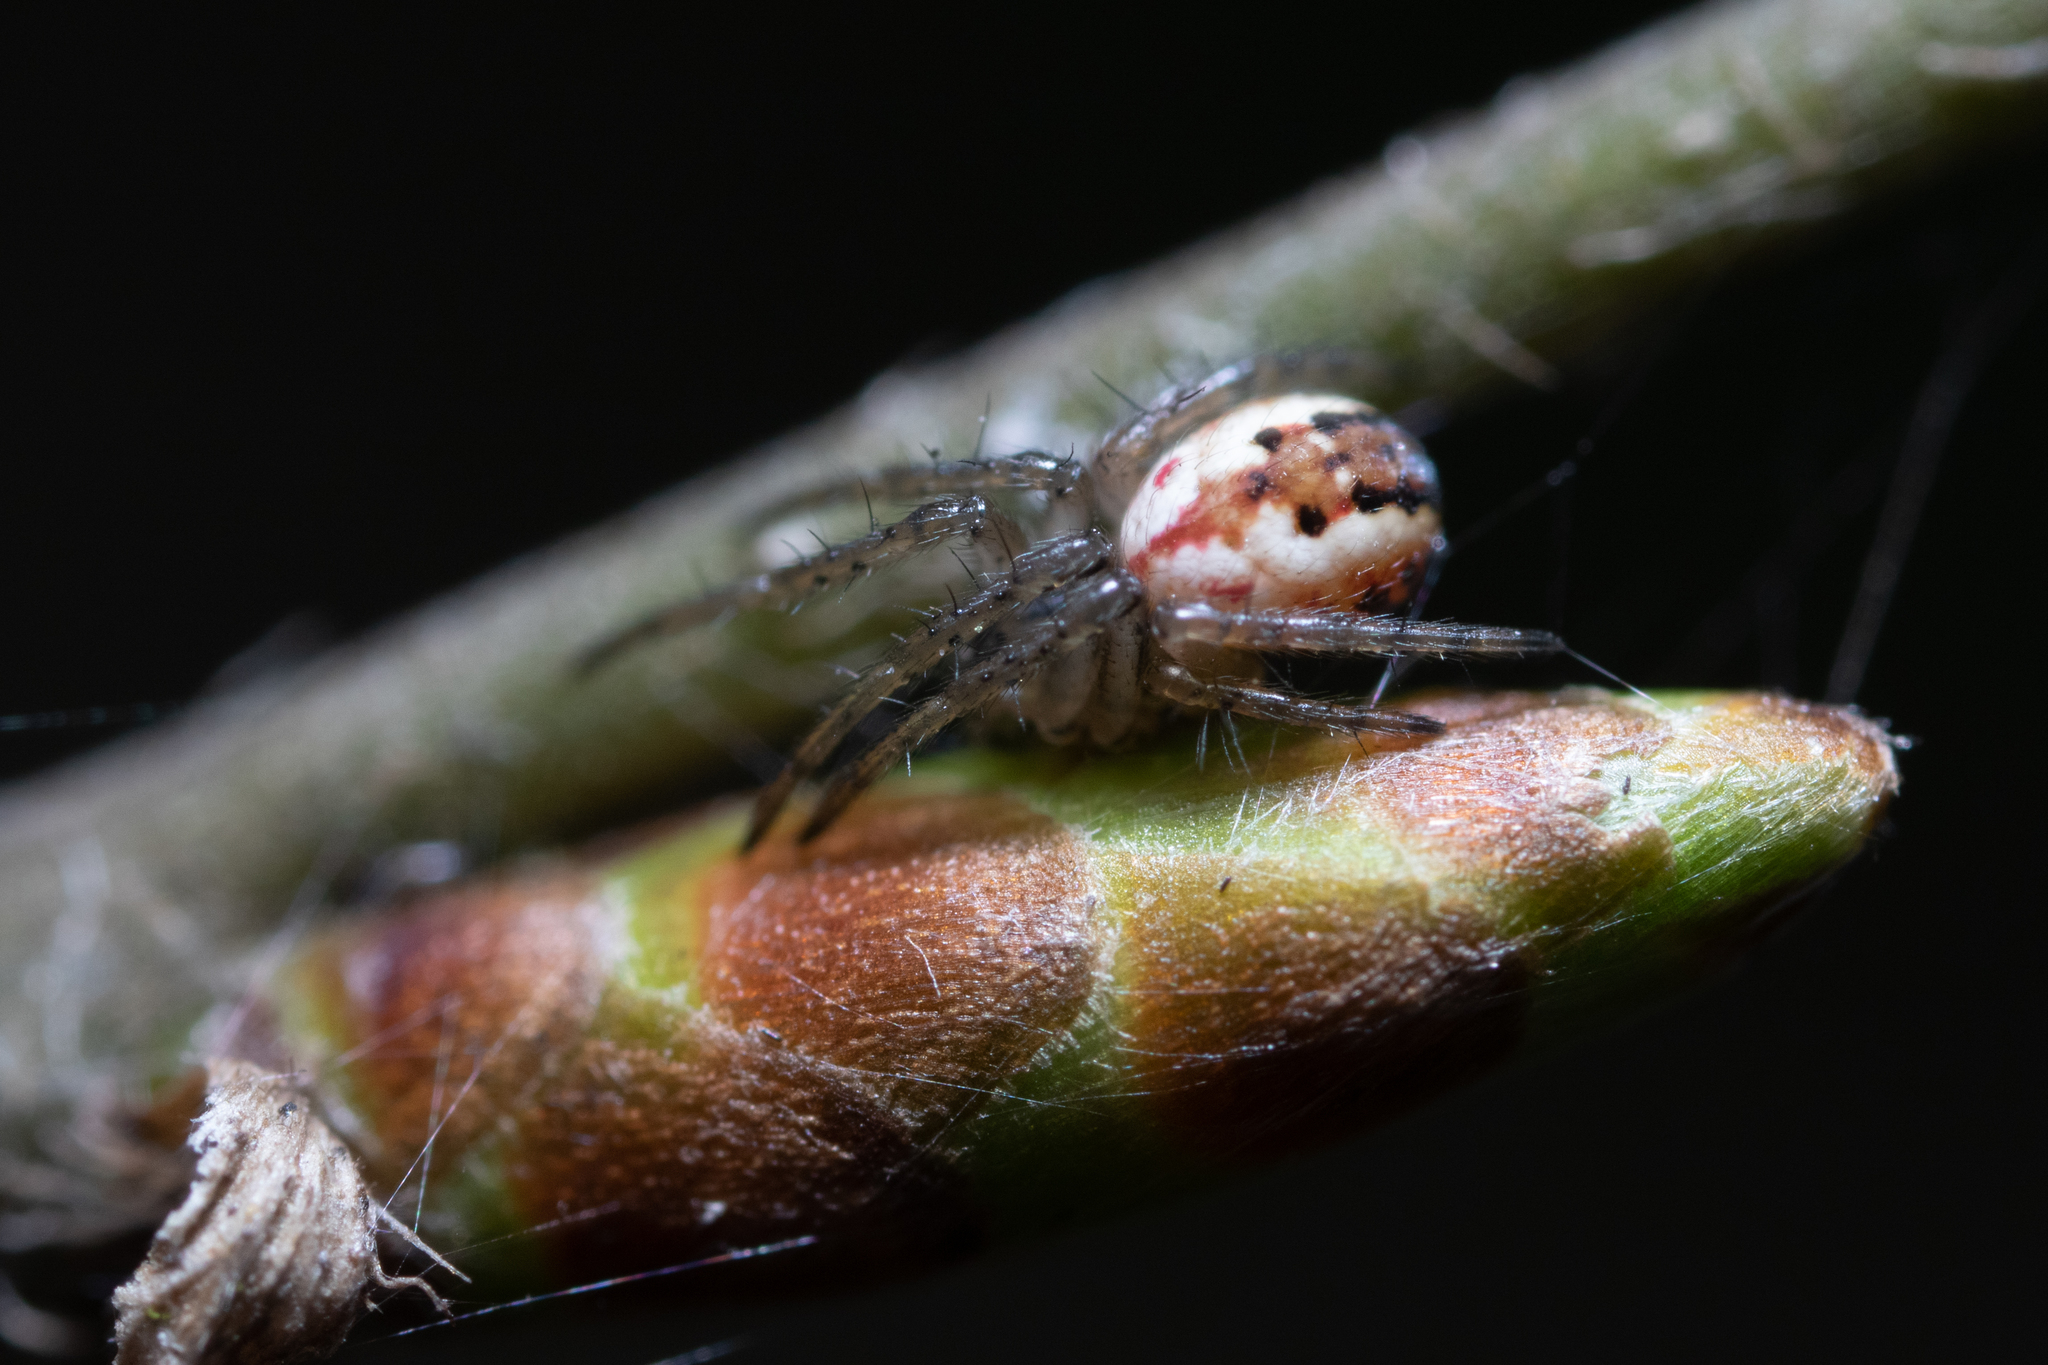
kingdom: Animalia
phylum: Arthropoda
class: Arachnida
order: Araneae
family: Araneidae
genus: Mangora
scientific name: Mangora acalypha
